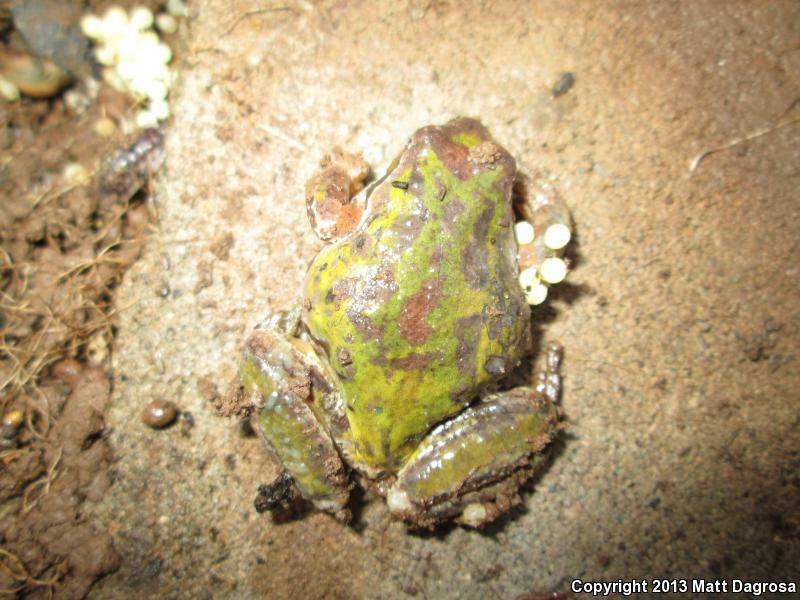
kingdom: Animalia
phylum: Chordata
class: Amphibia
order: Anura
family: Hylidae
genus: Pseudacris
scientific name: Pseudacris regilla
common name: Pacific chorus frog
